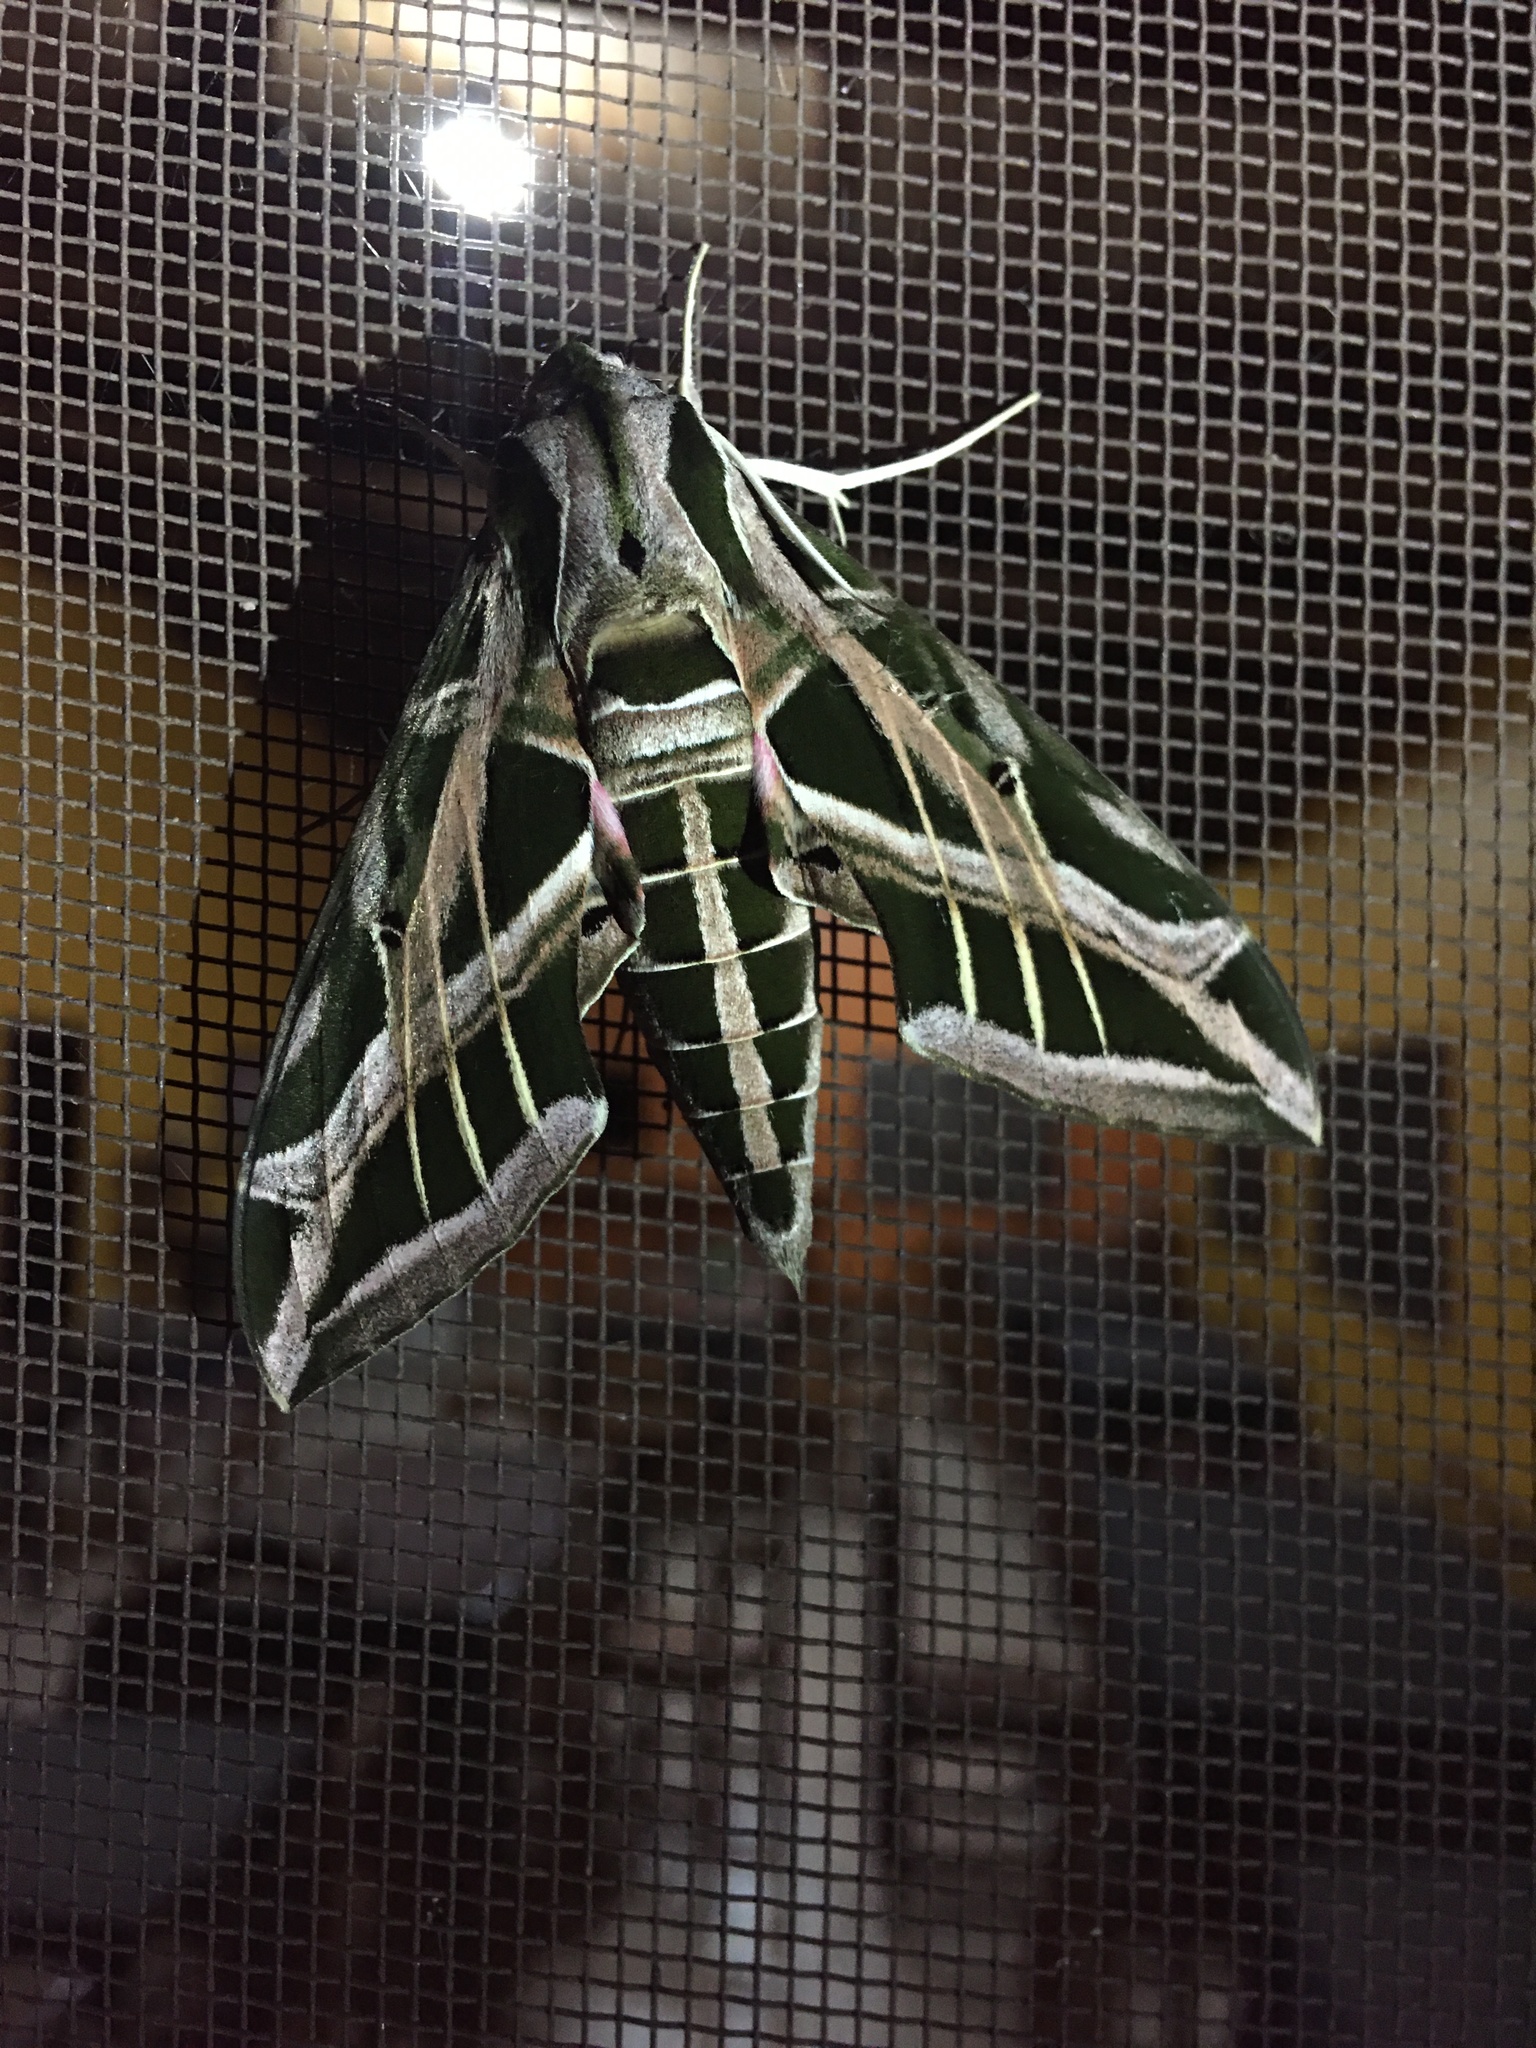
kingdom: Animalia
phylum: Arthropoda
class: Insecta
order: Lepidoptera
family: Sphingidae
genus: Eumorpha
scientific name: Eumorpha vitis
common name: Vine sphinx
